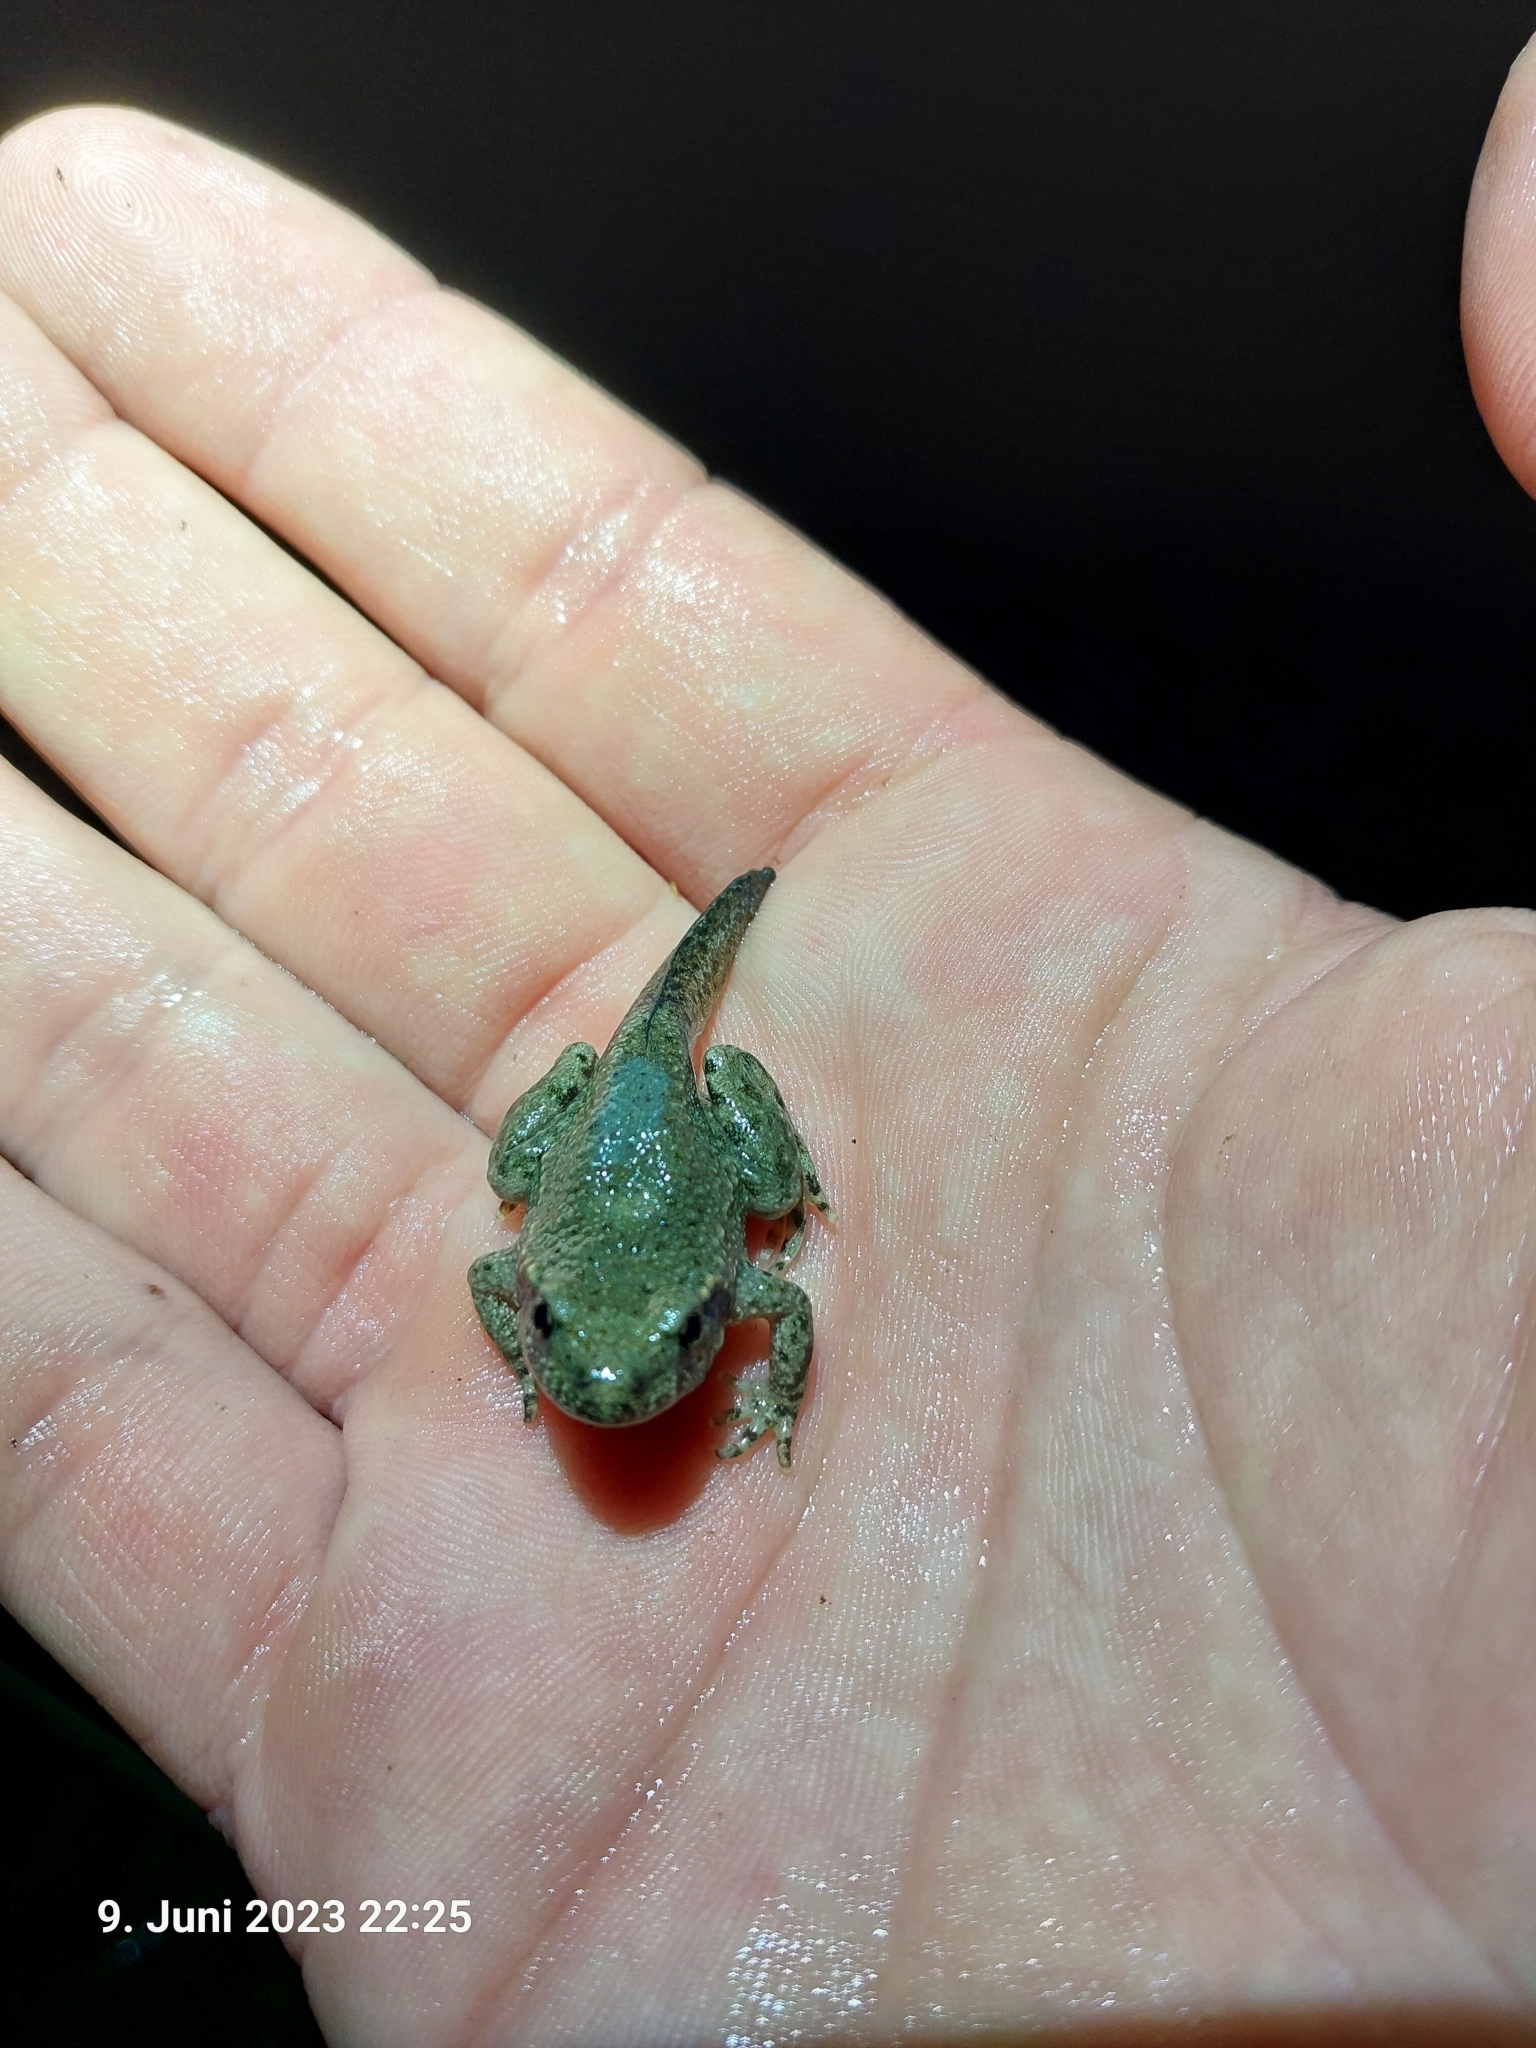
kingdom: Animalia
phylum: Chordata
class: Amphibia
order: Anura
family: Alytidae
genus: Alytes
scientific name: Alytes obstetricans
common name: Midwife toad
